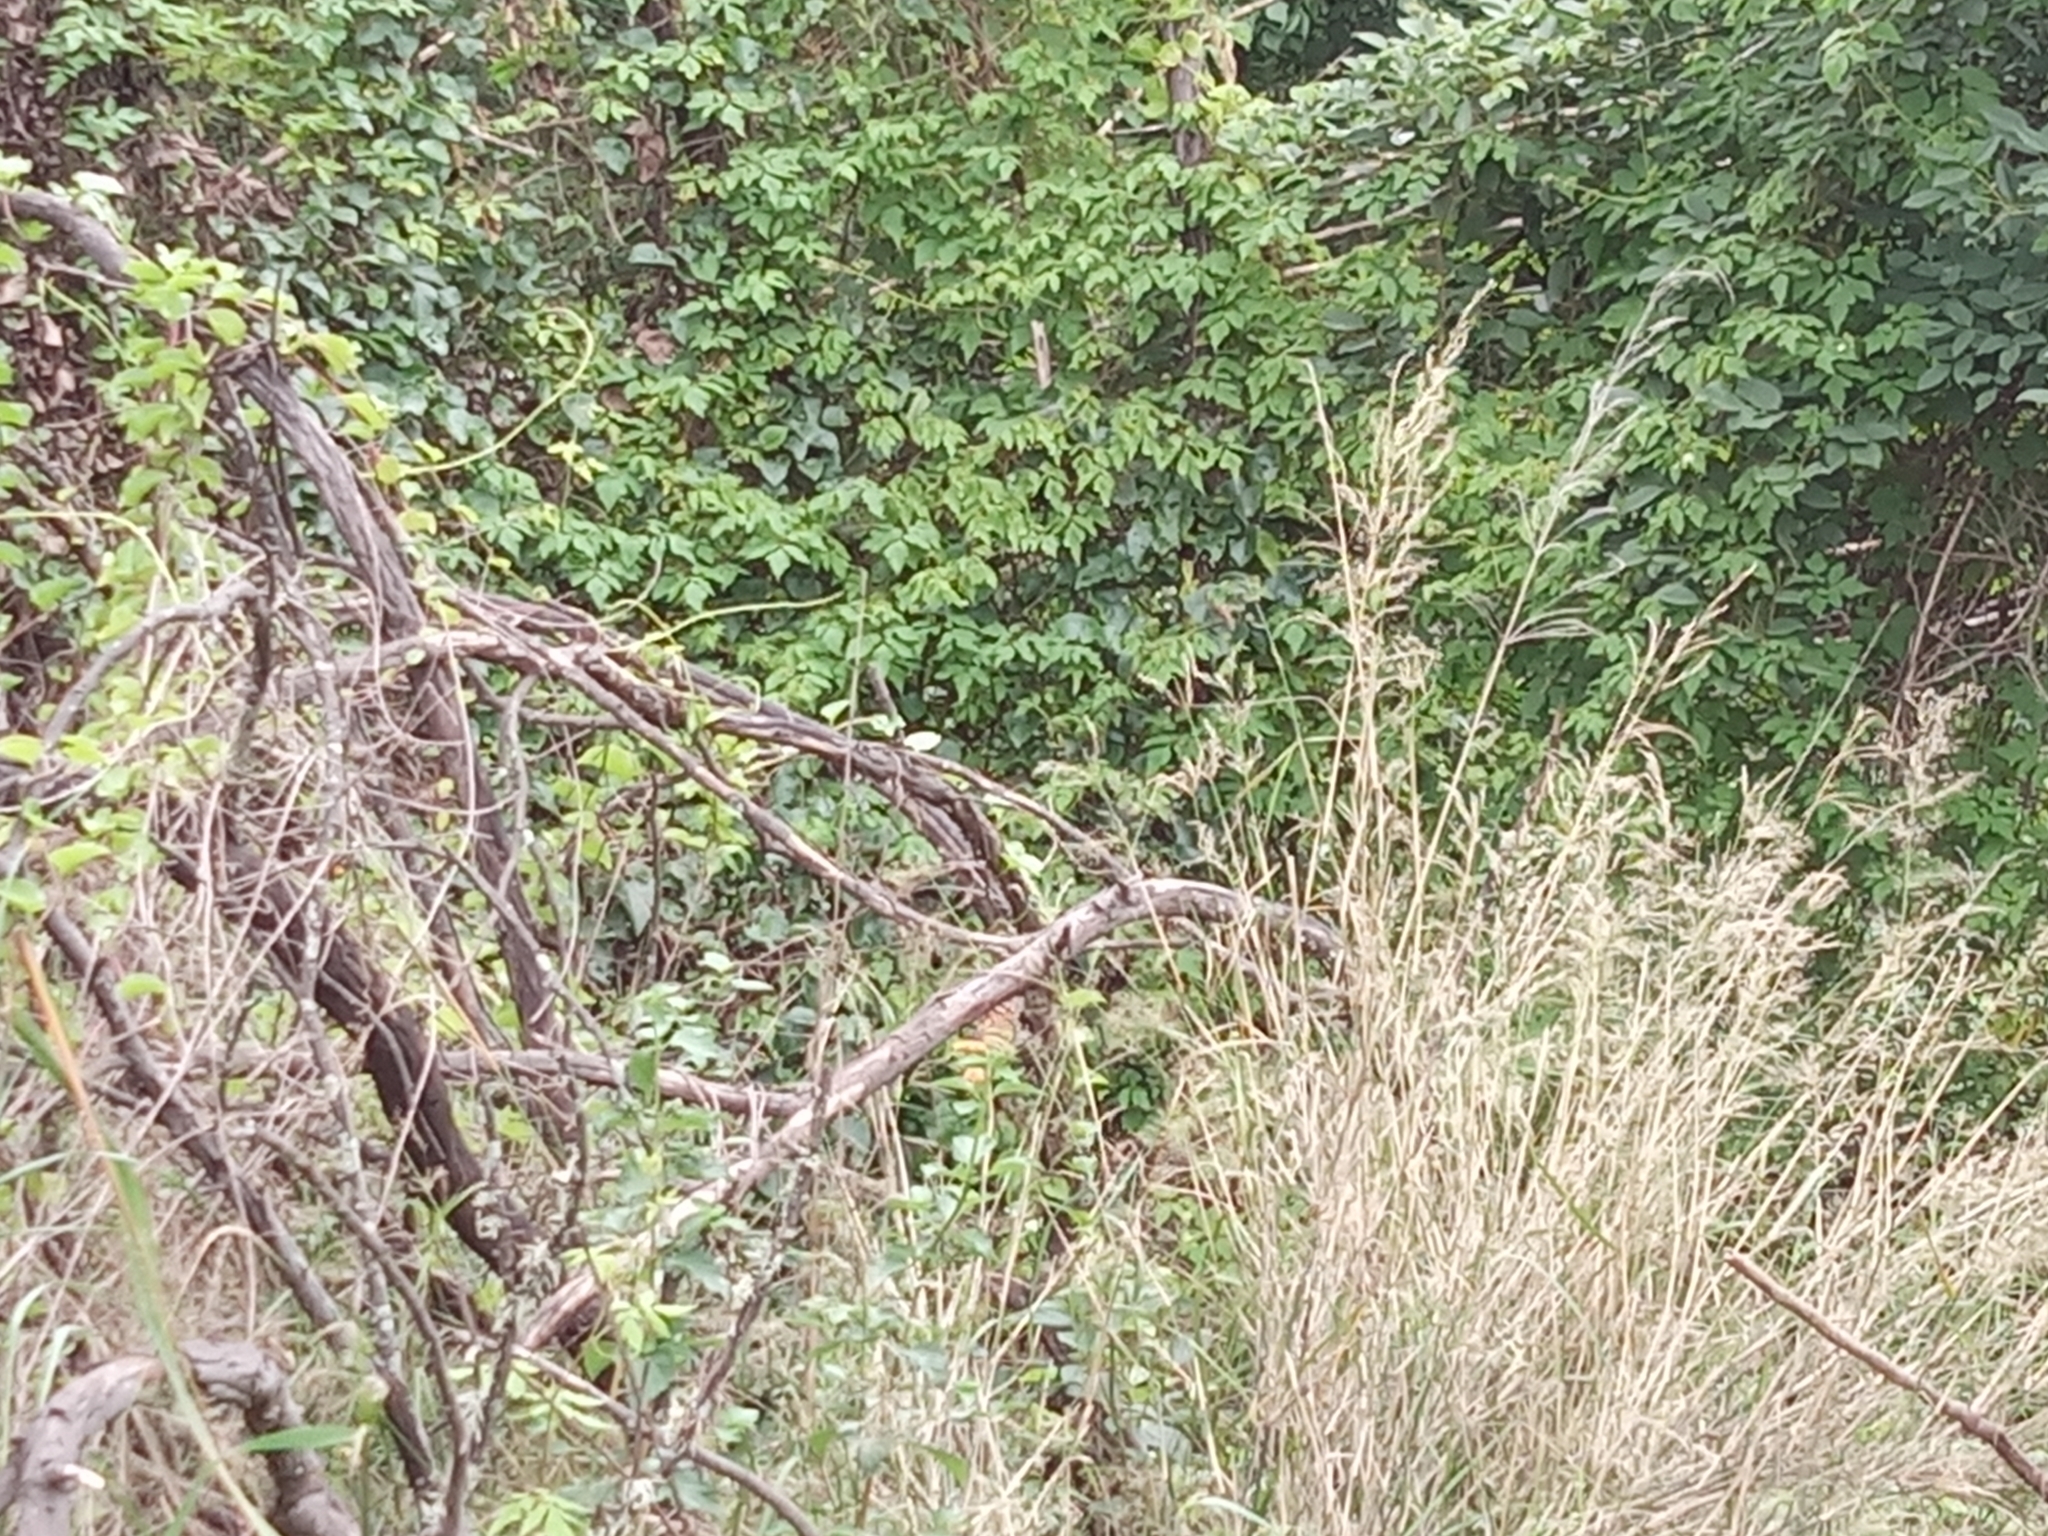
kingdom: Animalia
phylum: Arthropoda
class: Insecta
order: Lepidoptera
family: Nymphalidae
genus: Danaus
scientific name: Danaus plexippus
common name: Monarch
